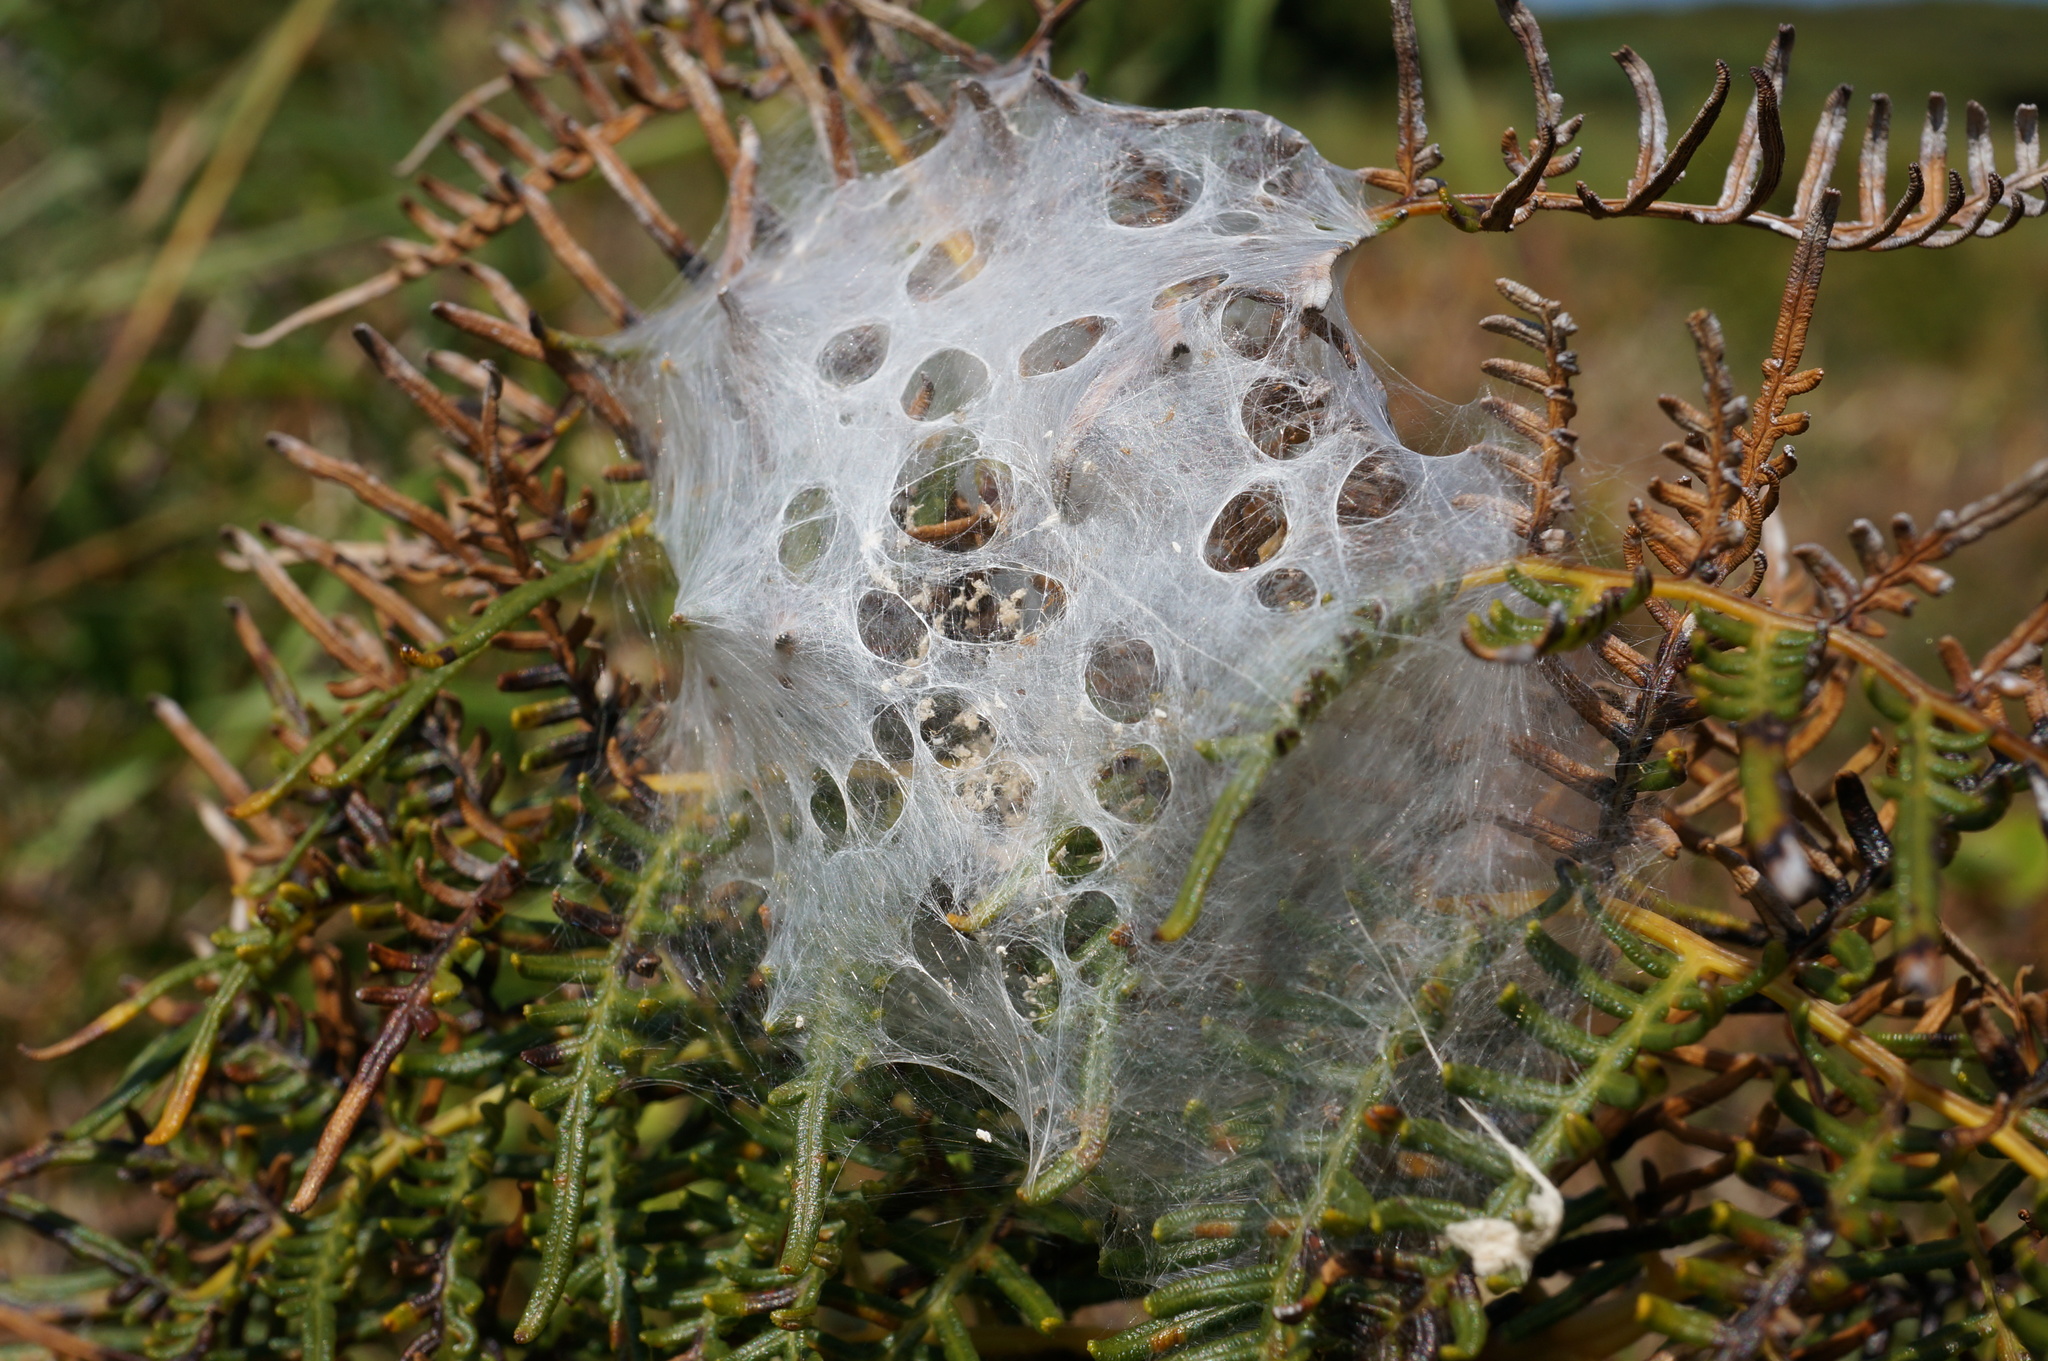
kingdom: Animalia
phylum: Arthropoda
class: Arachnida
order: Araneae
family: Pisauridae
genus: Dolomedes
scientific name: Dolomedes minor
